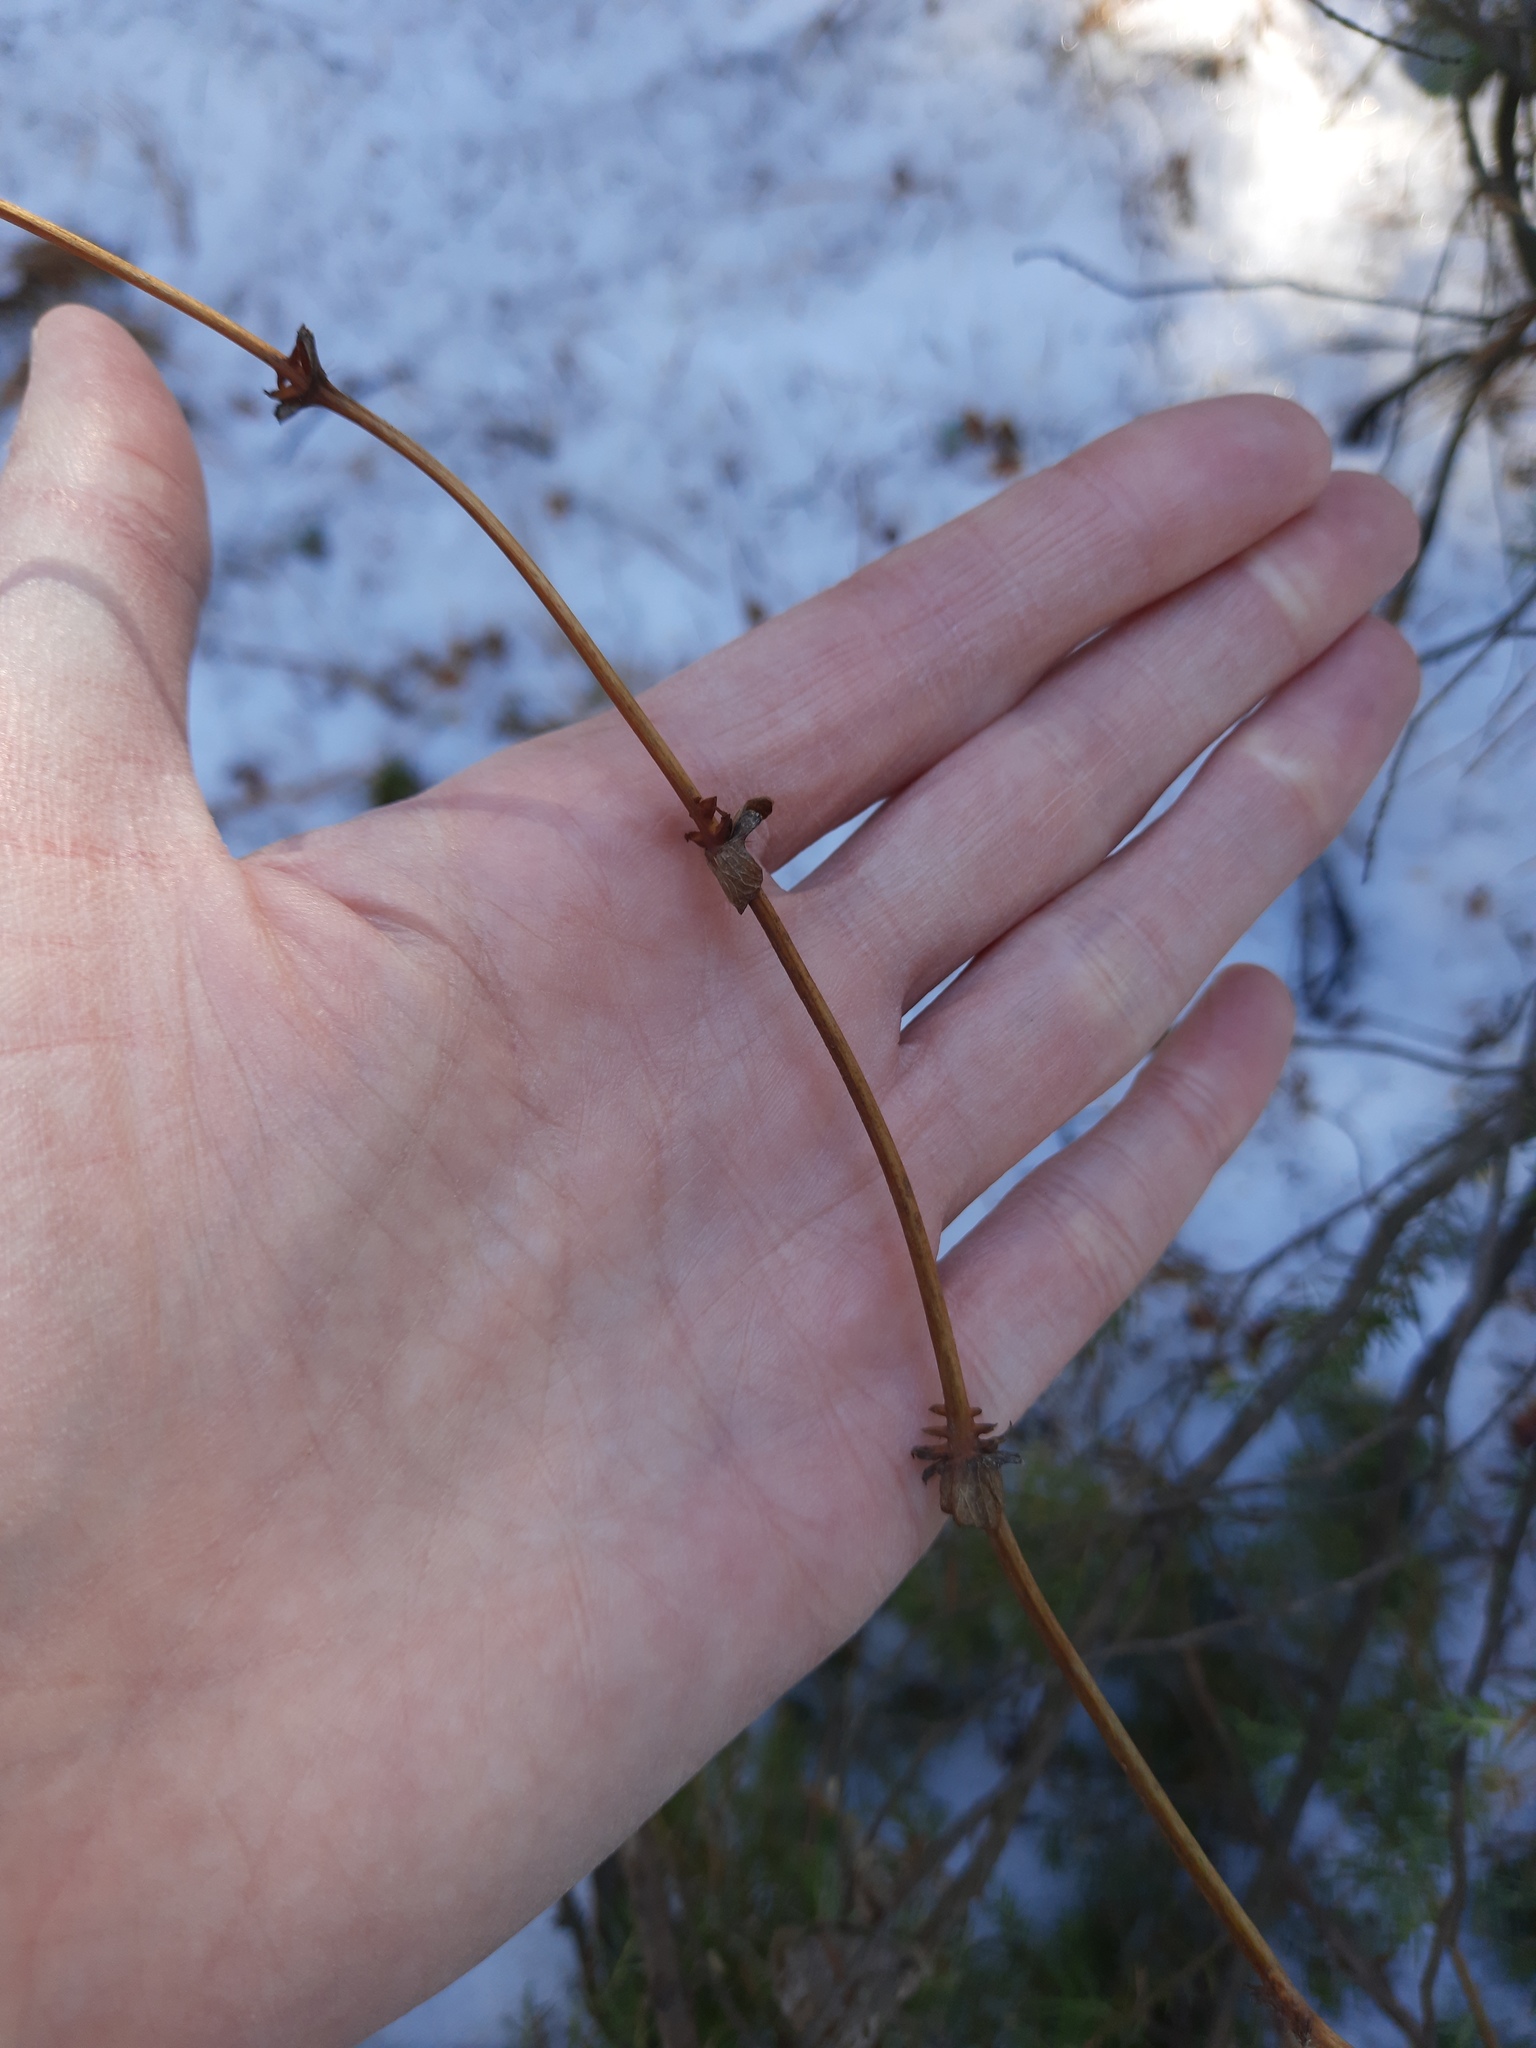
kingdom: Plantae
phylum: Tracheophyta
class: Magnoliopsida
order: Dipsacales
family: Caprifoliaceae
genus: Lonicera
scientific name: Lonicera caerulea
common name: Blue honeysuckle
